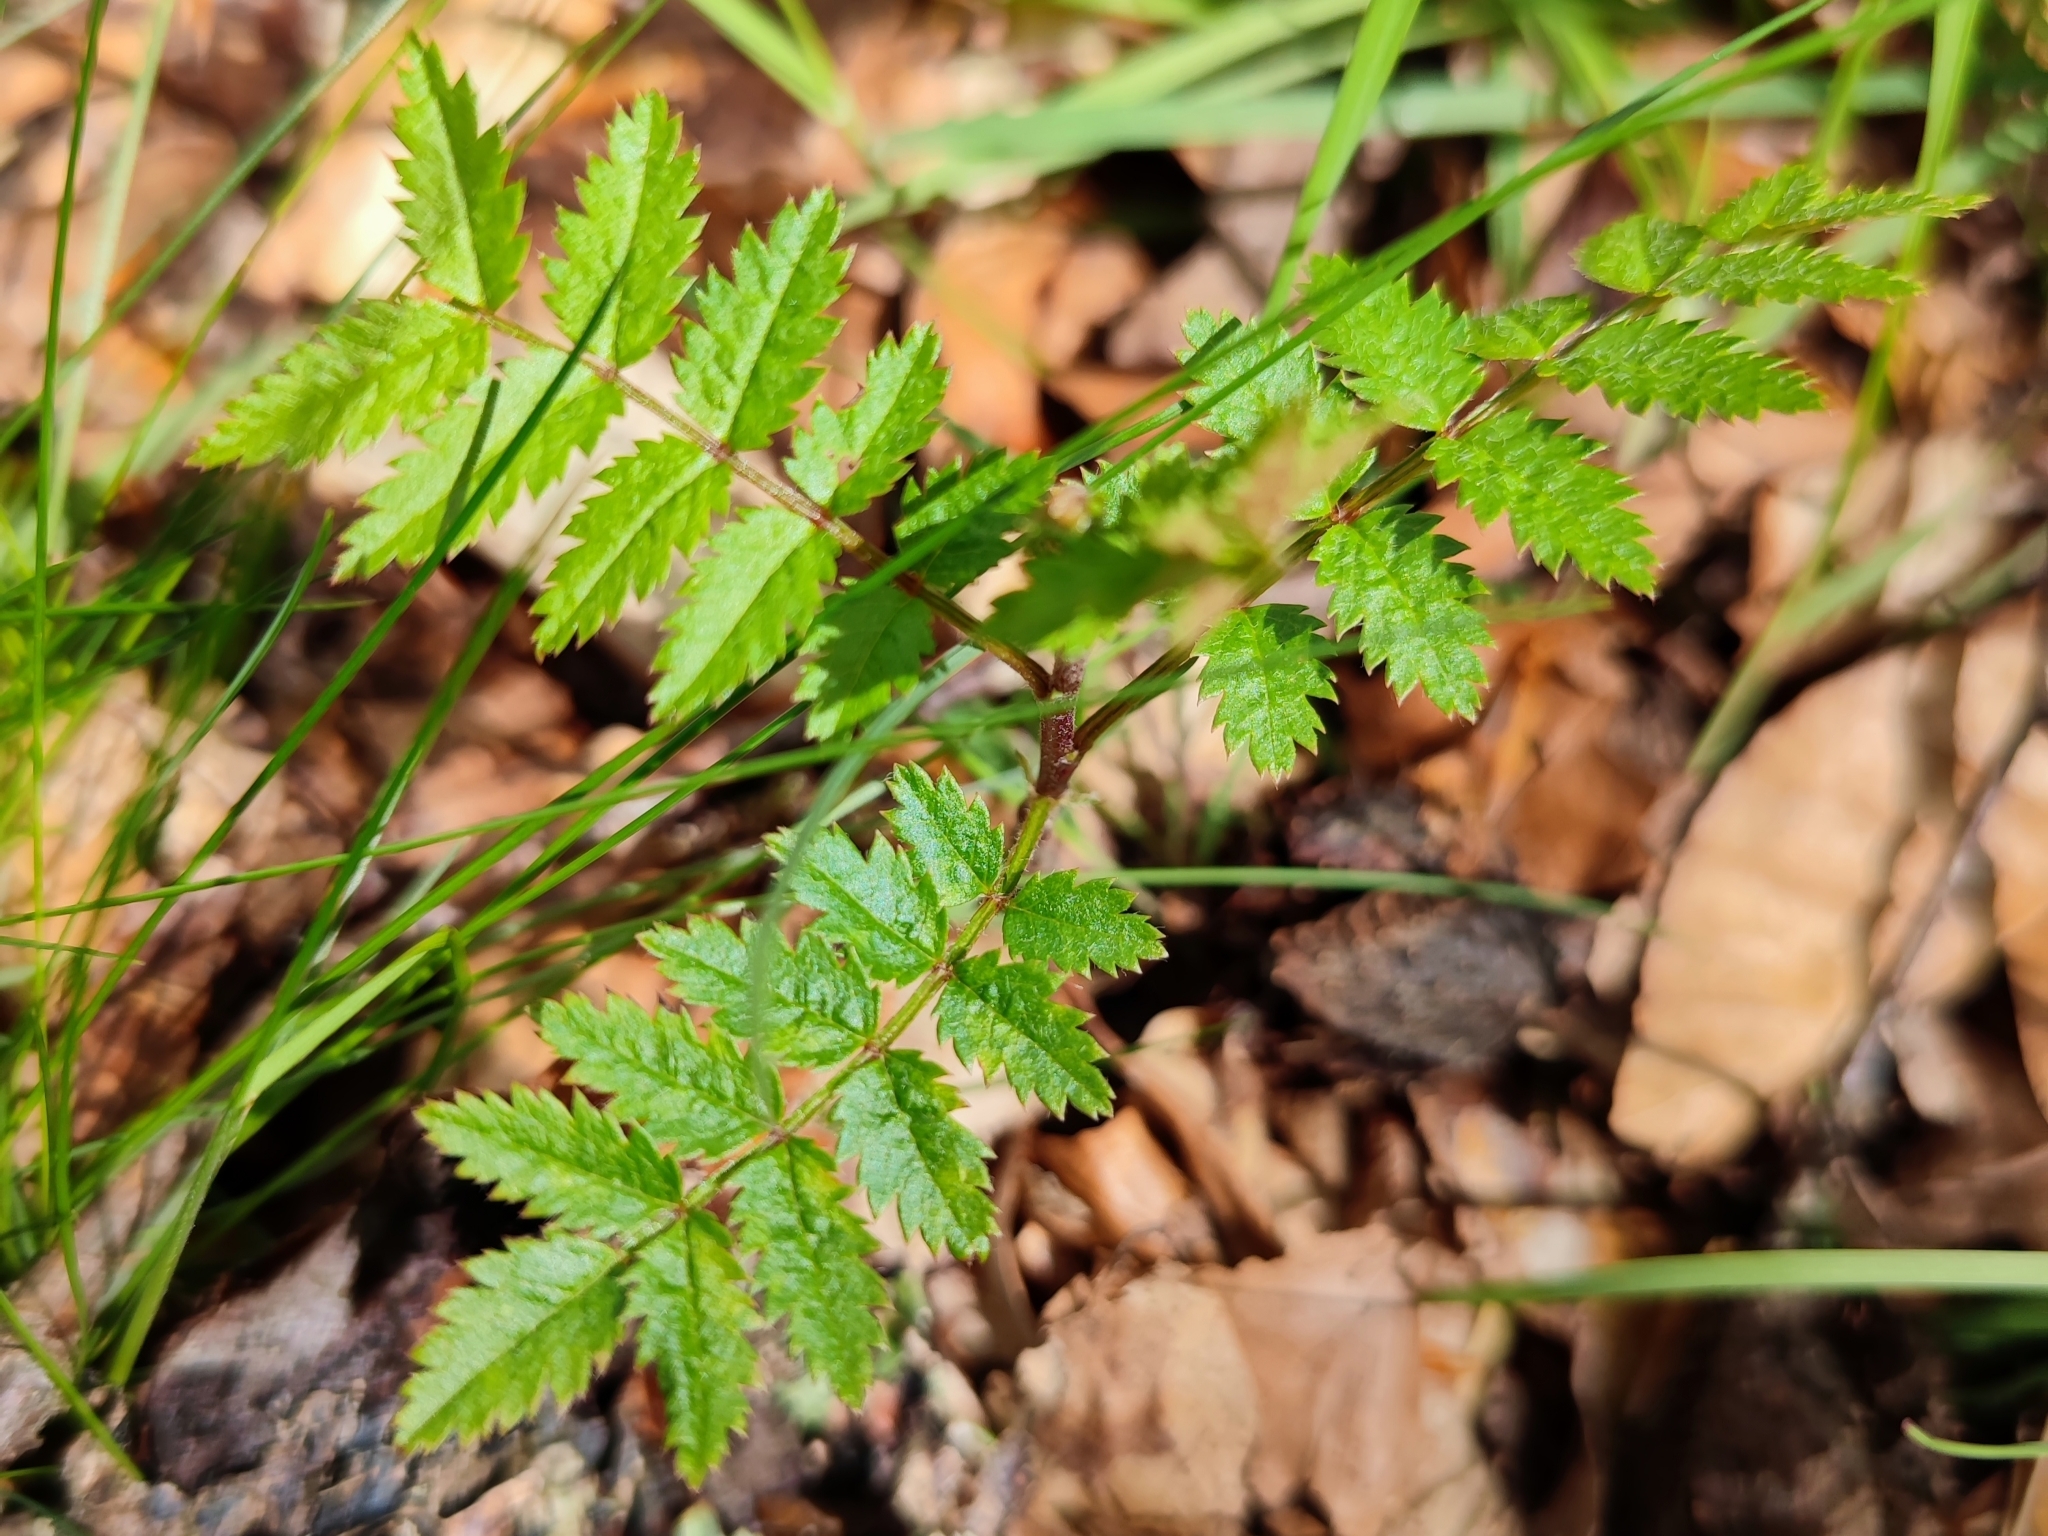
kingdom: Plantae
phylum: Tracheophyta
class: Magnoliopsida
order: Rosales
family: Rosaceae
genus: Sorbus
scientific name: Sorbus aucuparia
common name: Rowan
